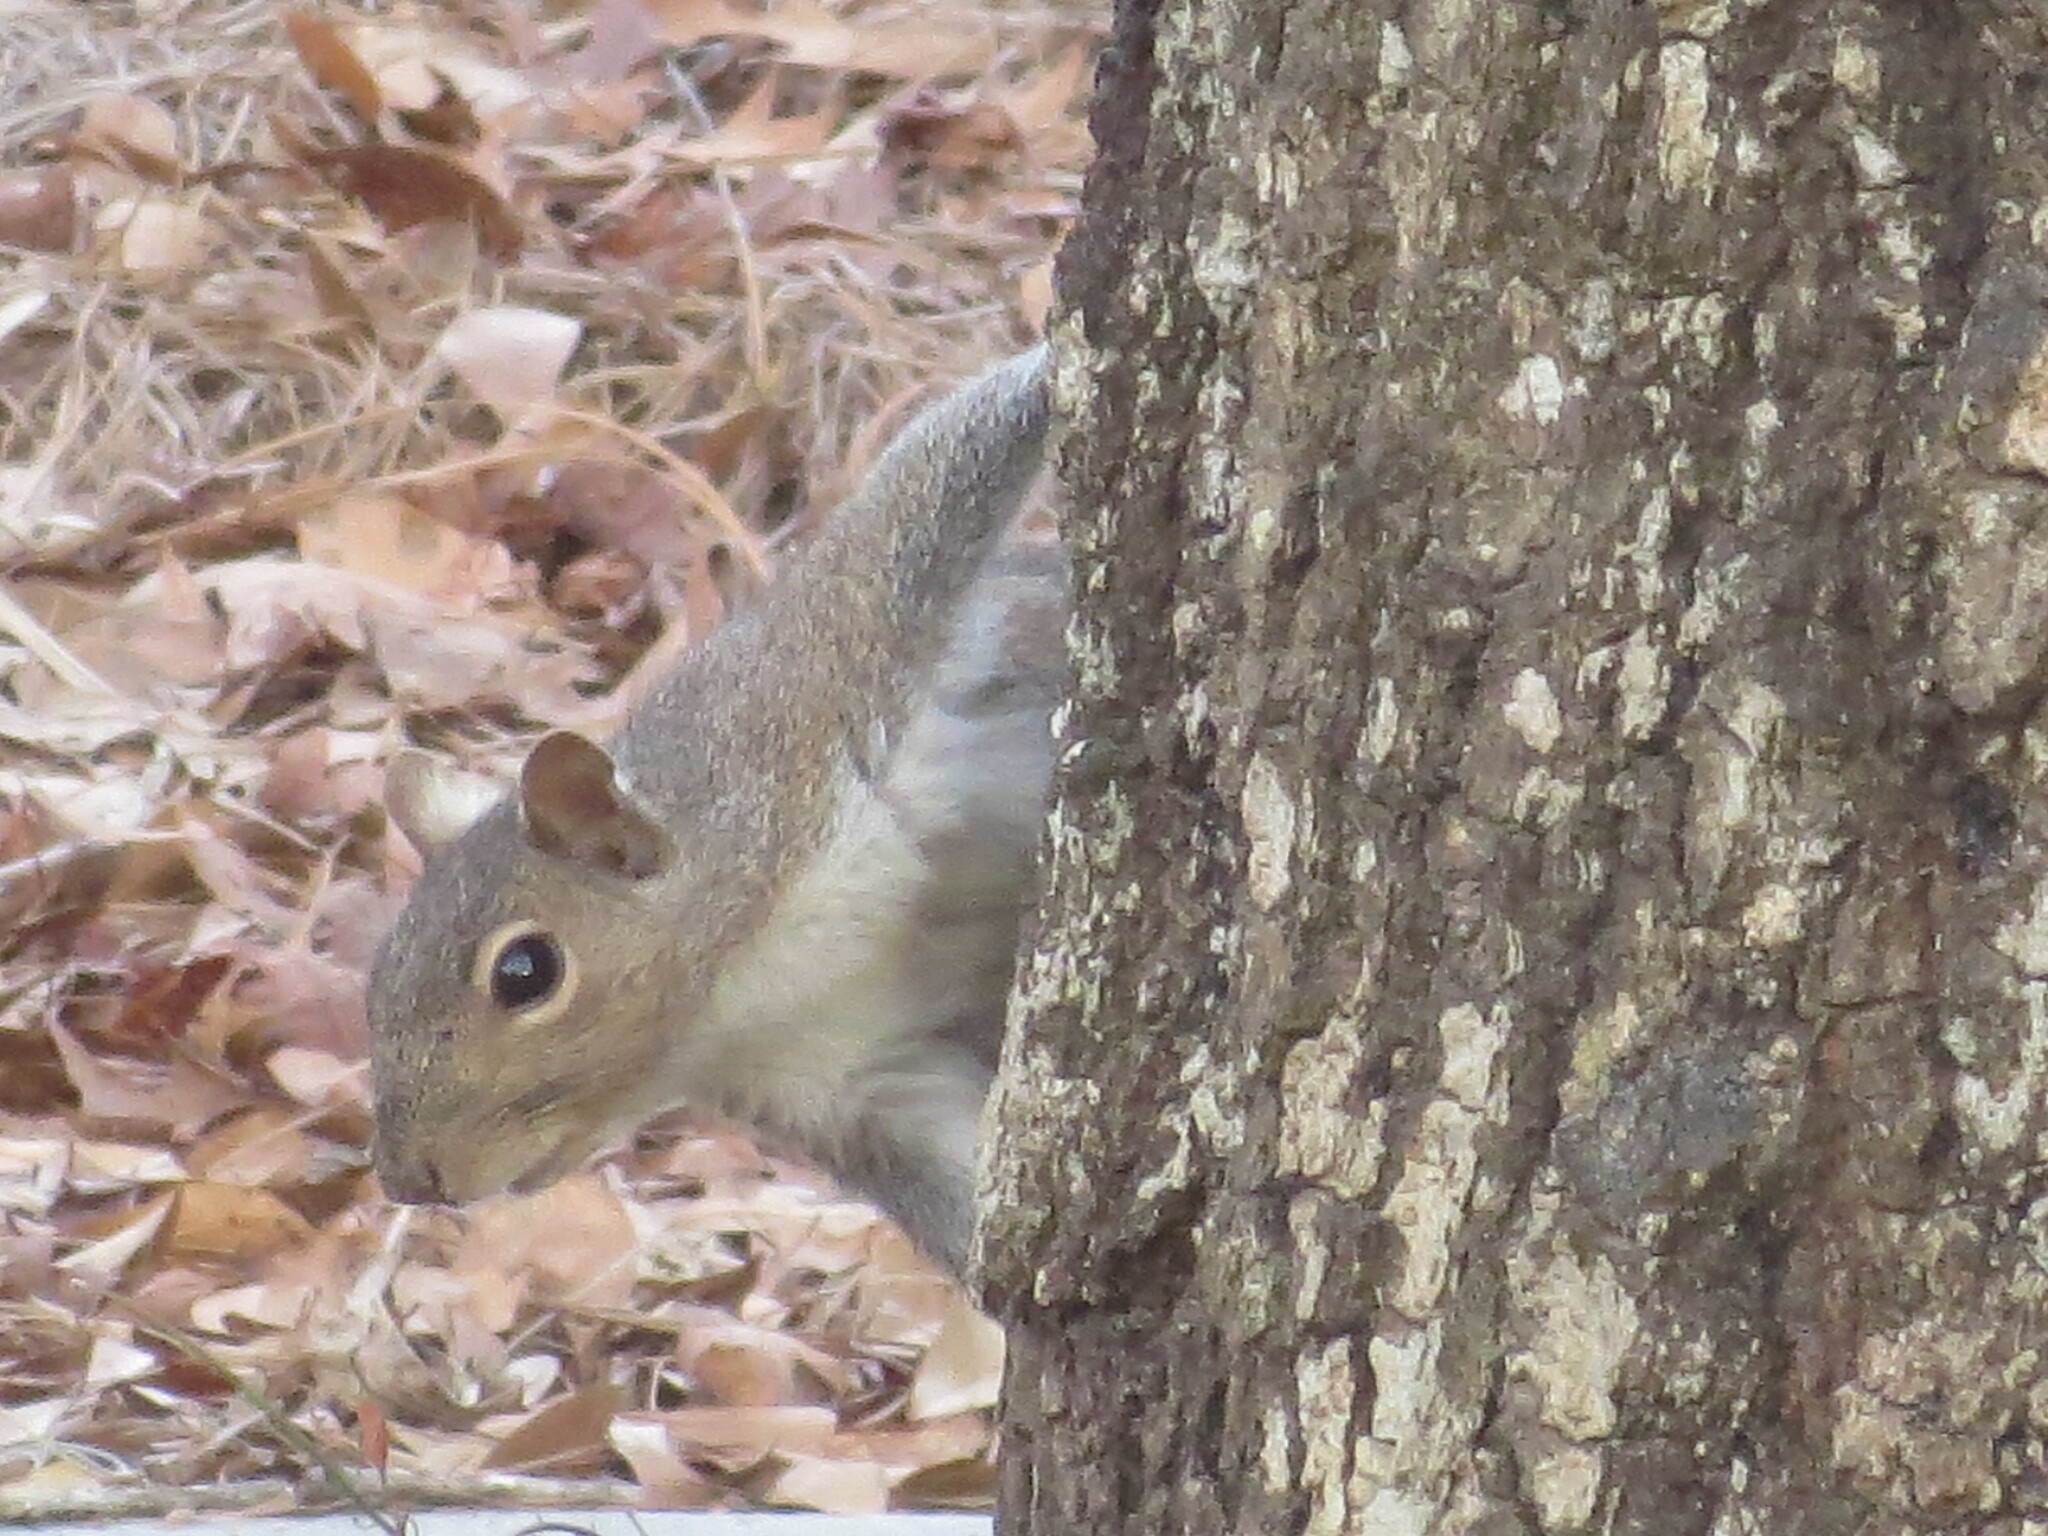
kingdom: Animalia
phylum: Chordata
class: Mammalia
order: Rodentia
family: Sciuridae
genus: Sciurus
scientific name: Sciurus carolinensis
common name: Eastern gray squirrel
